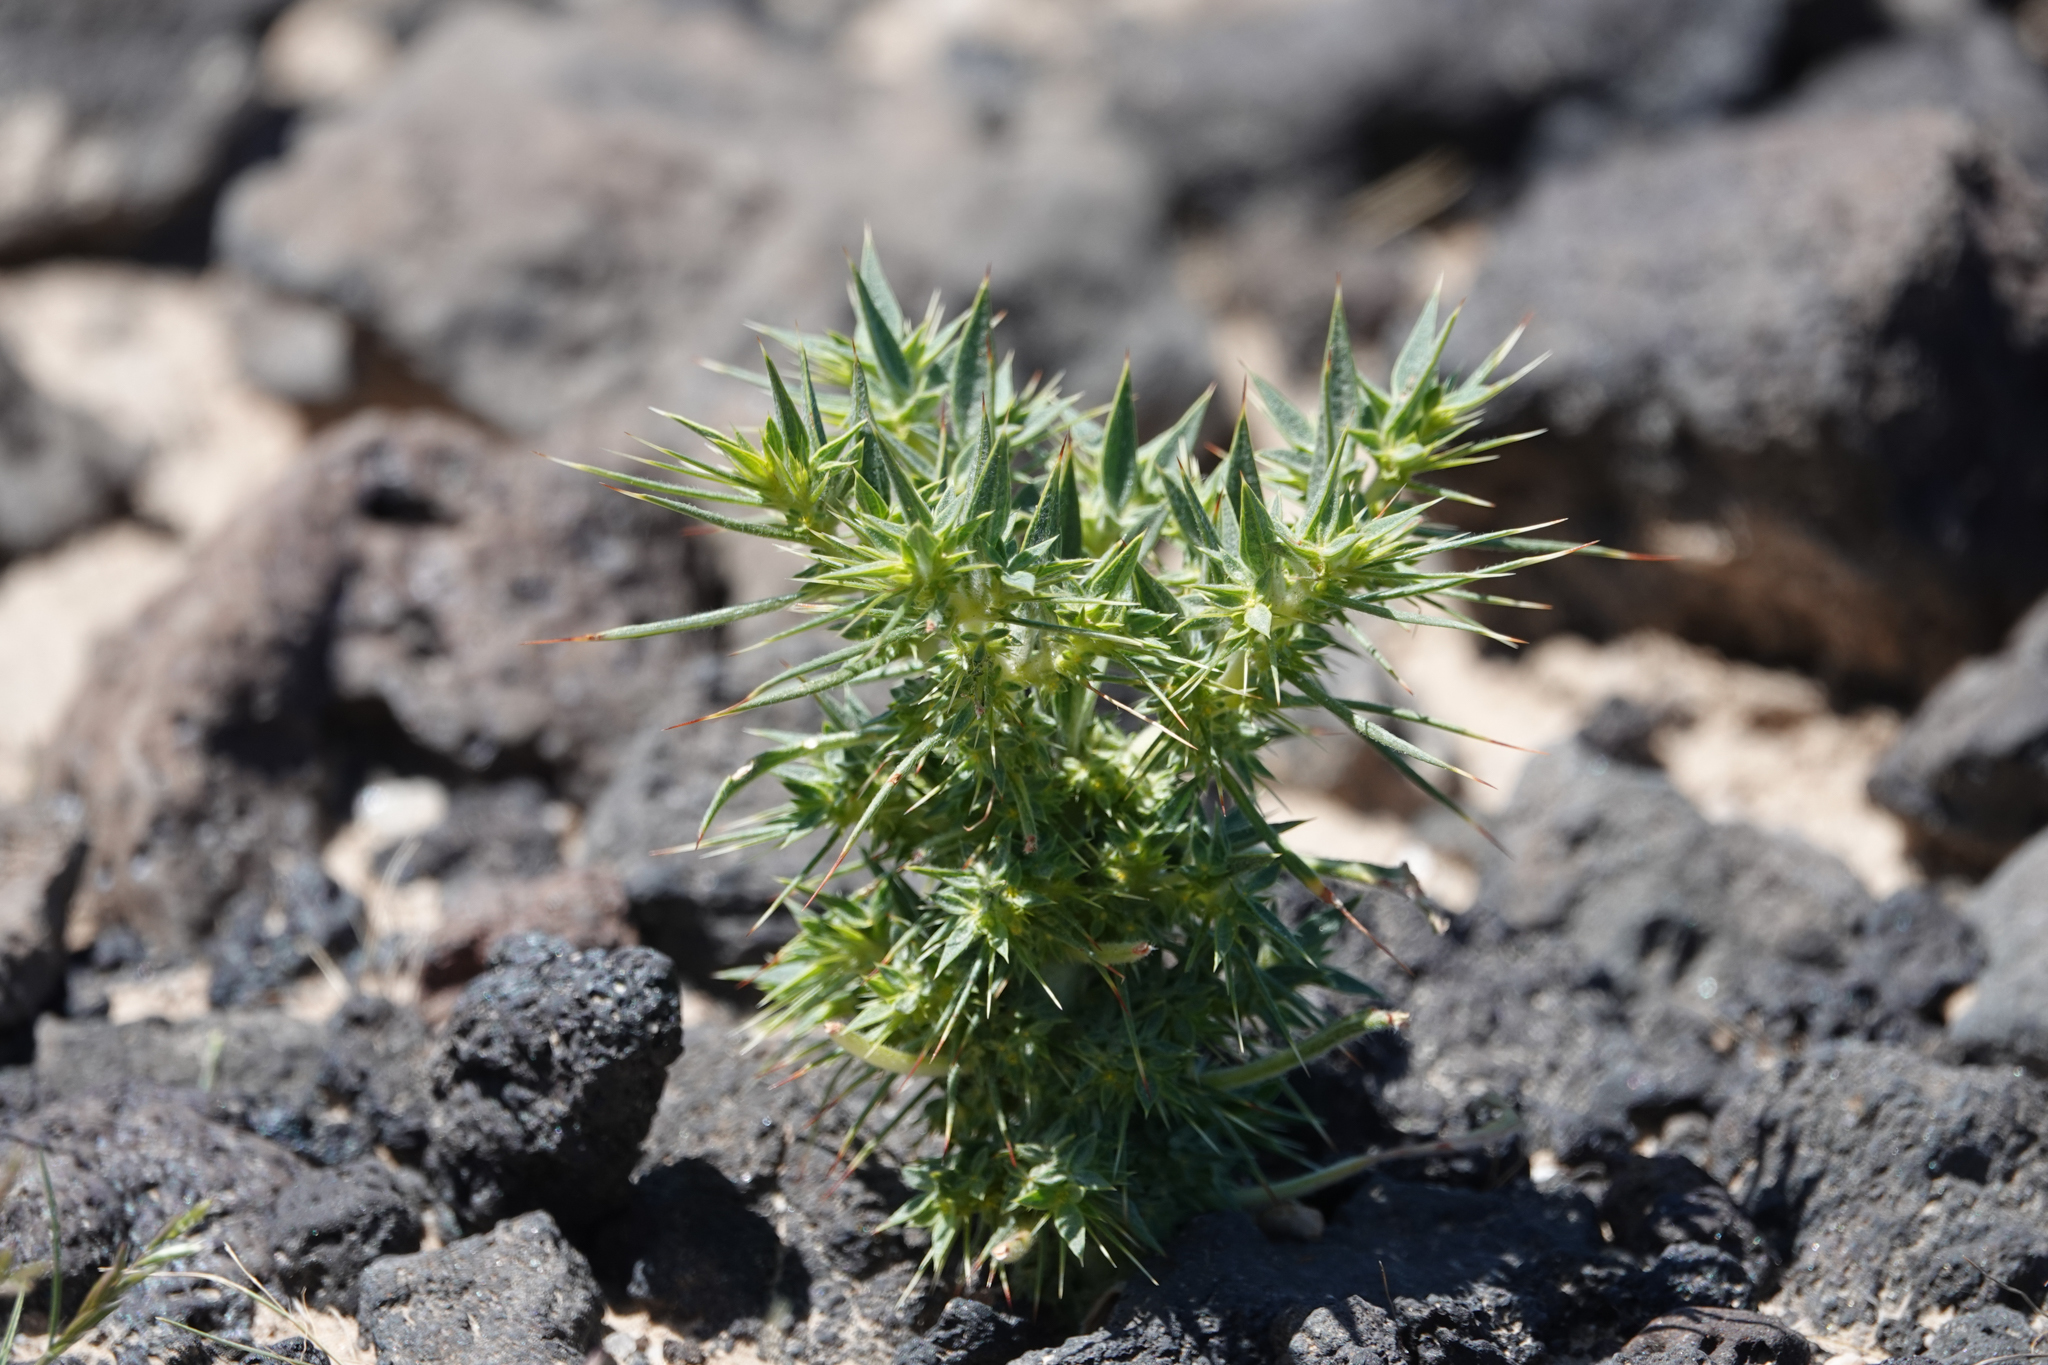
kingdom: Plantae
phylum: Tracheophyta
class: Magnoliopsida
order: Caryophyllales
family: Polygonaceae
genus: Chorizanthe
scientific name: Chorizanthe rigida
